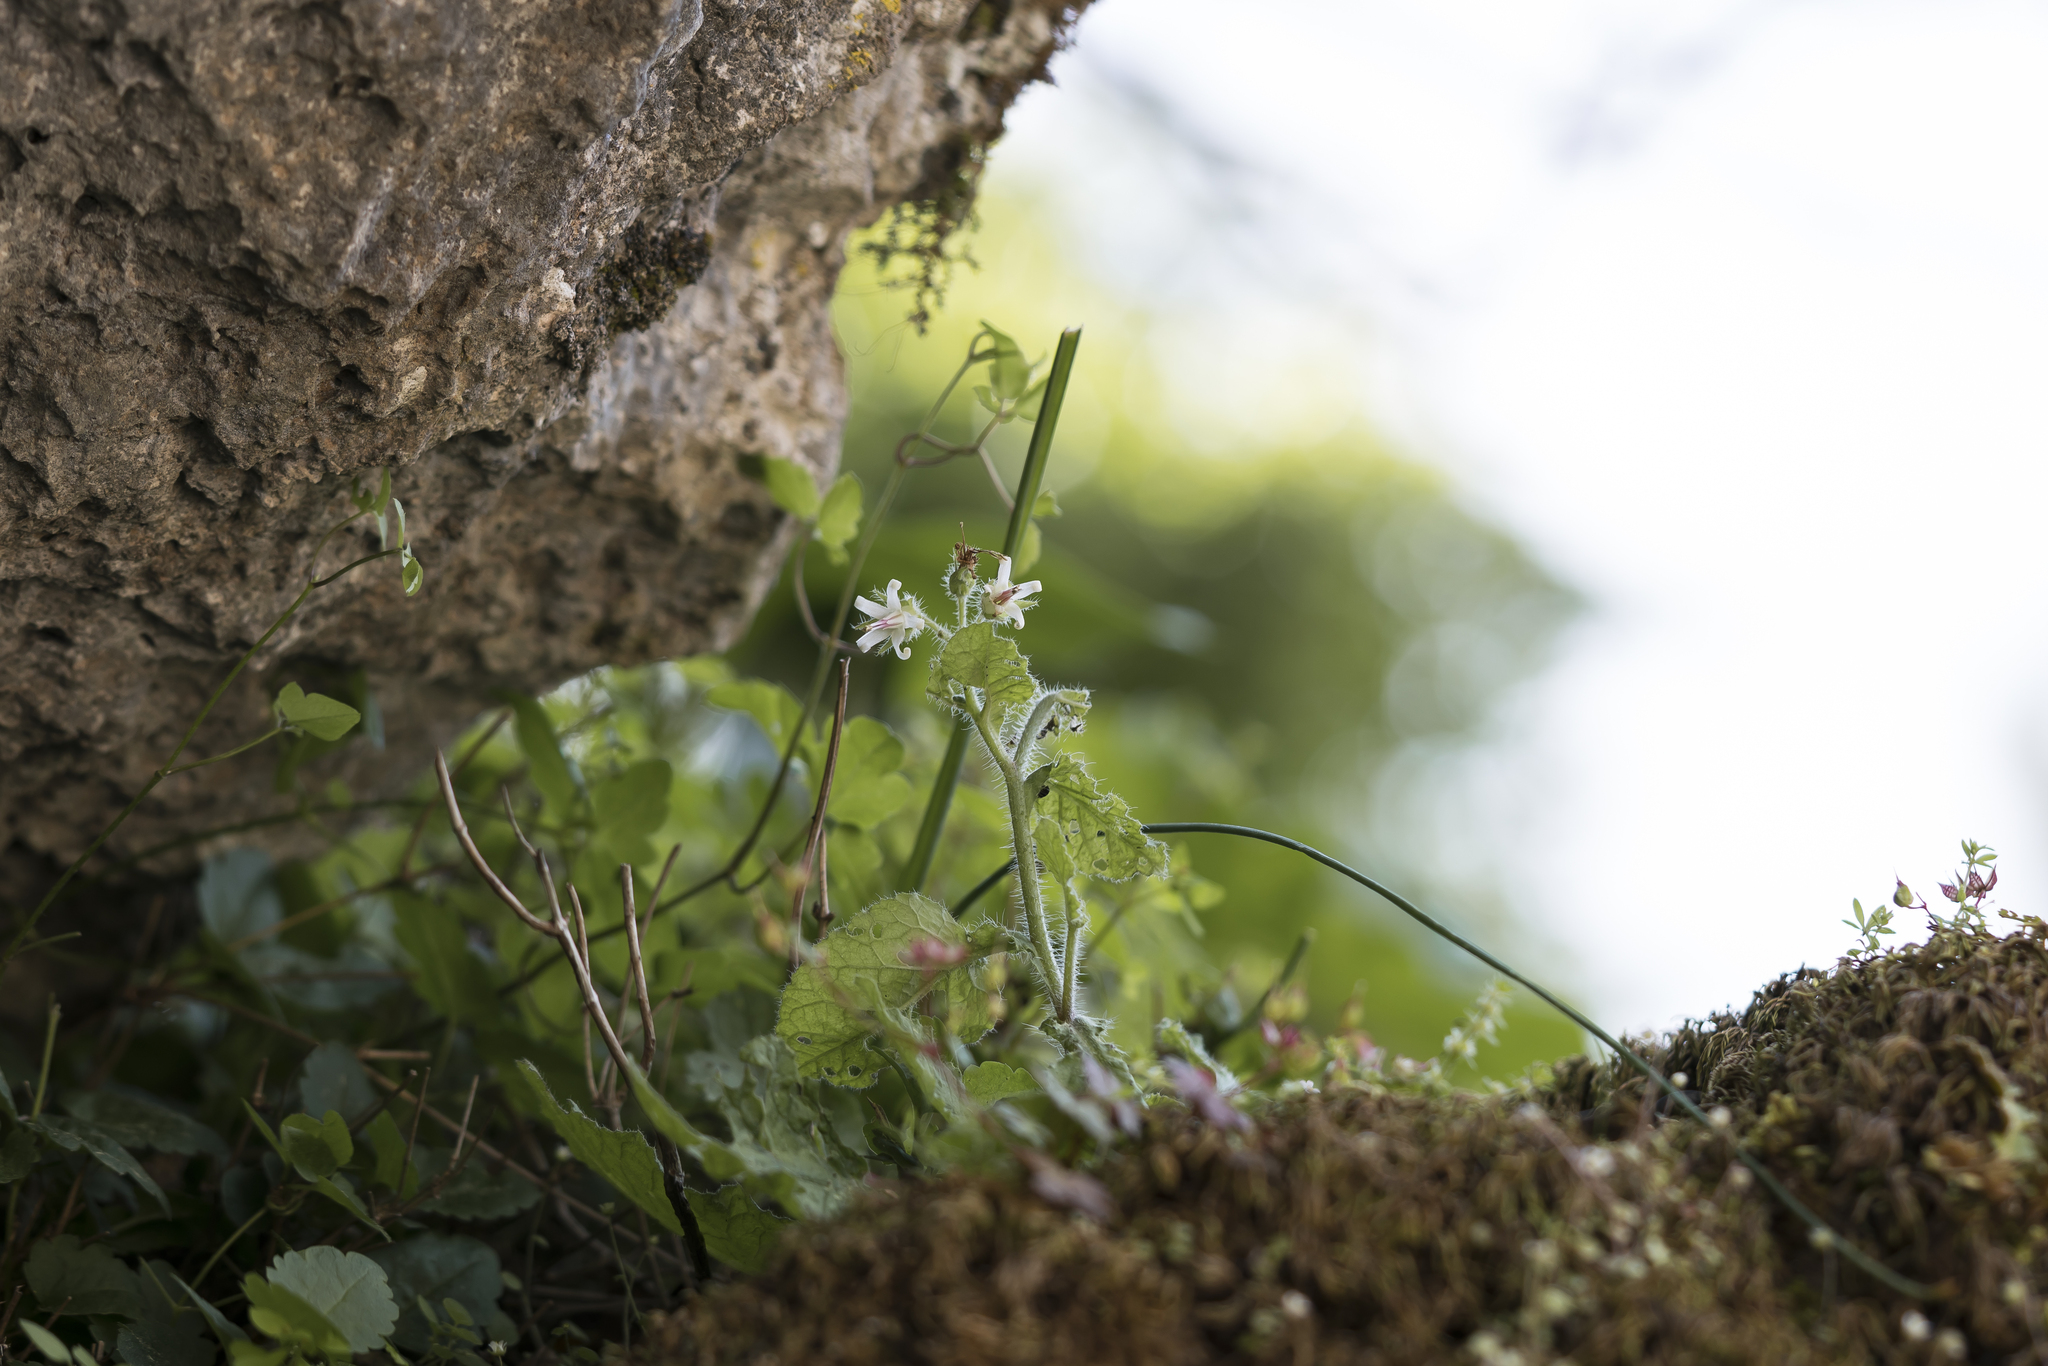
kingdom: Plantae
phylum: Tracheophyta
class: Magnoliopsida
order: Boraginales
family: Boraginaceae
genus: Symphytum
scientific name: Symphytum circinale
